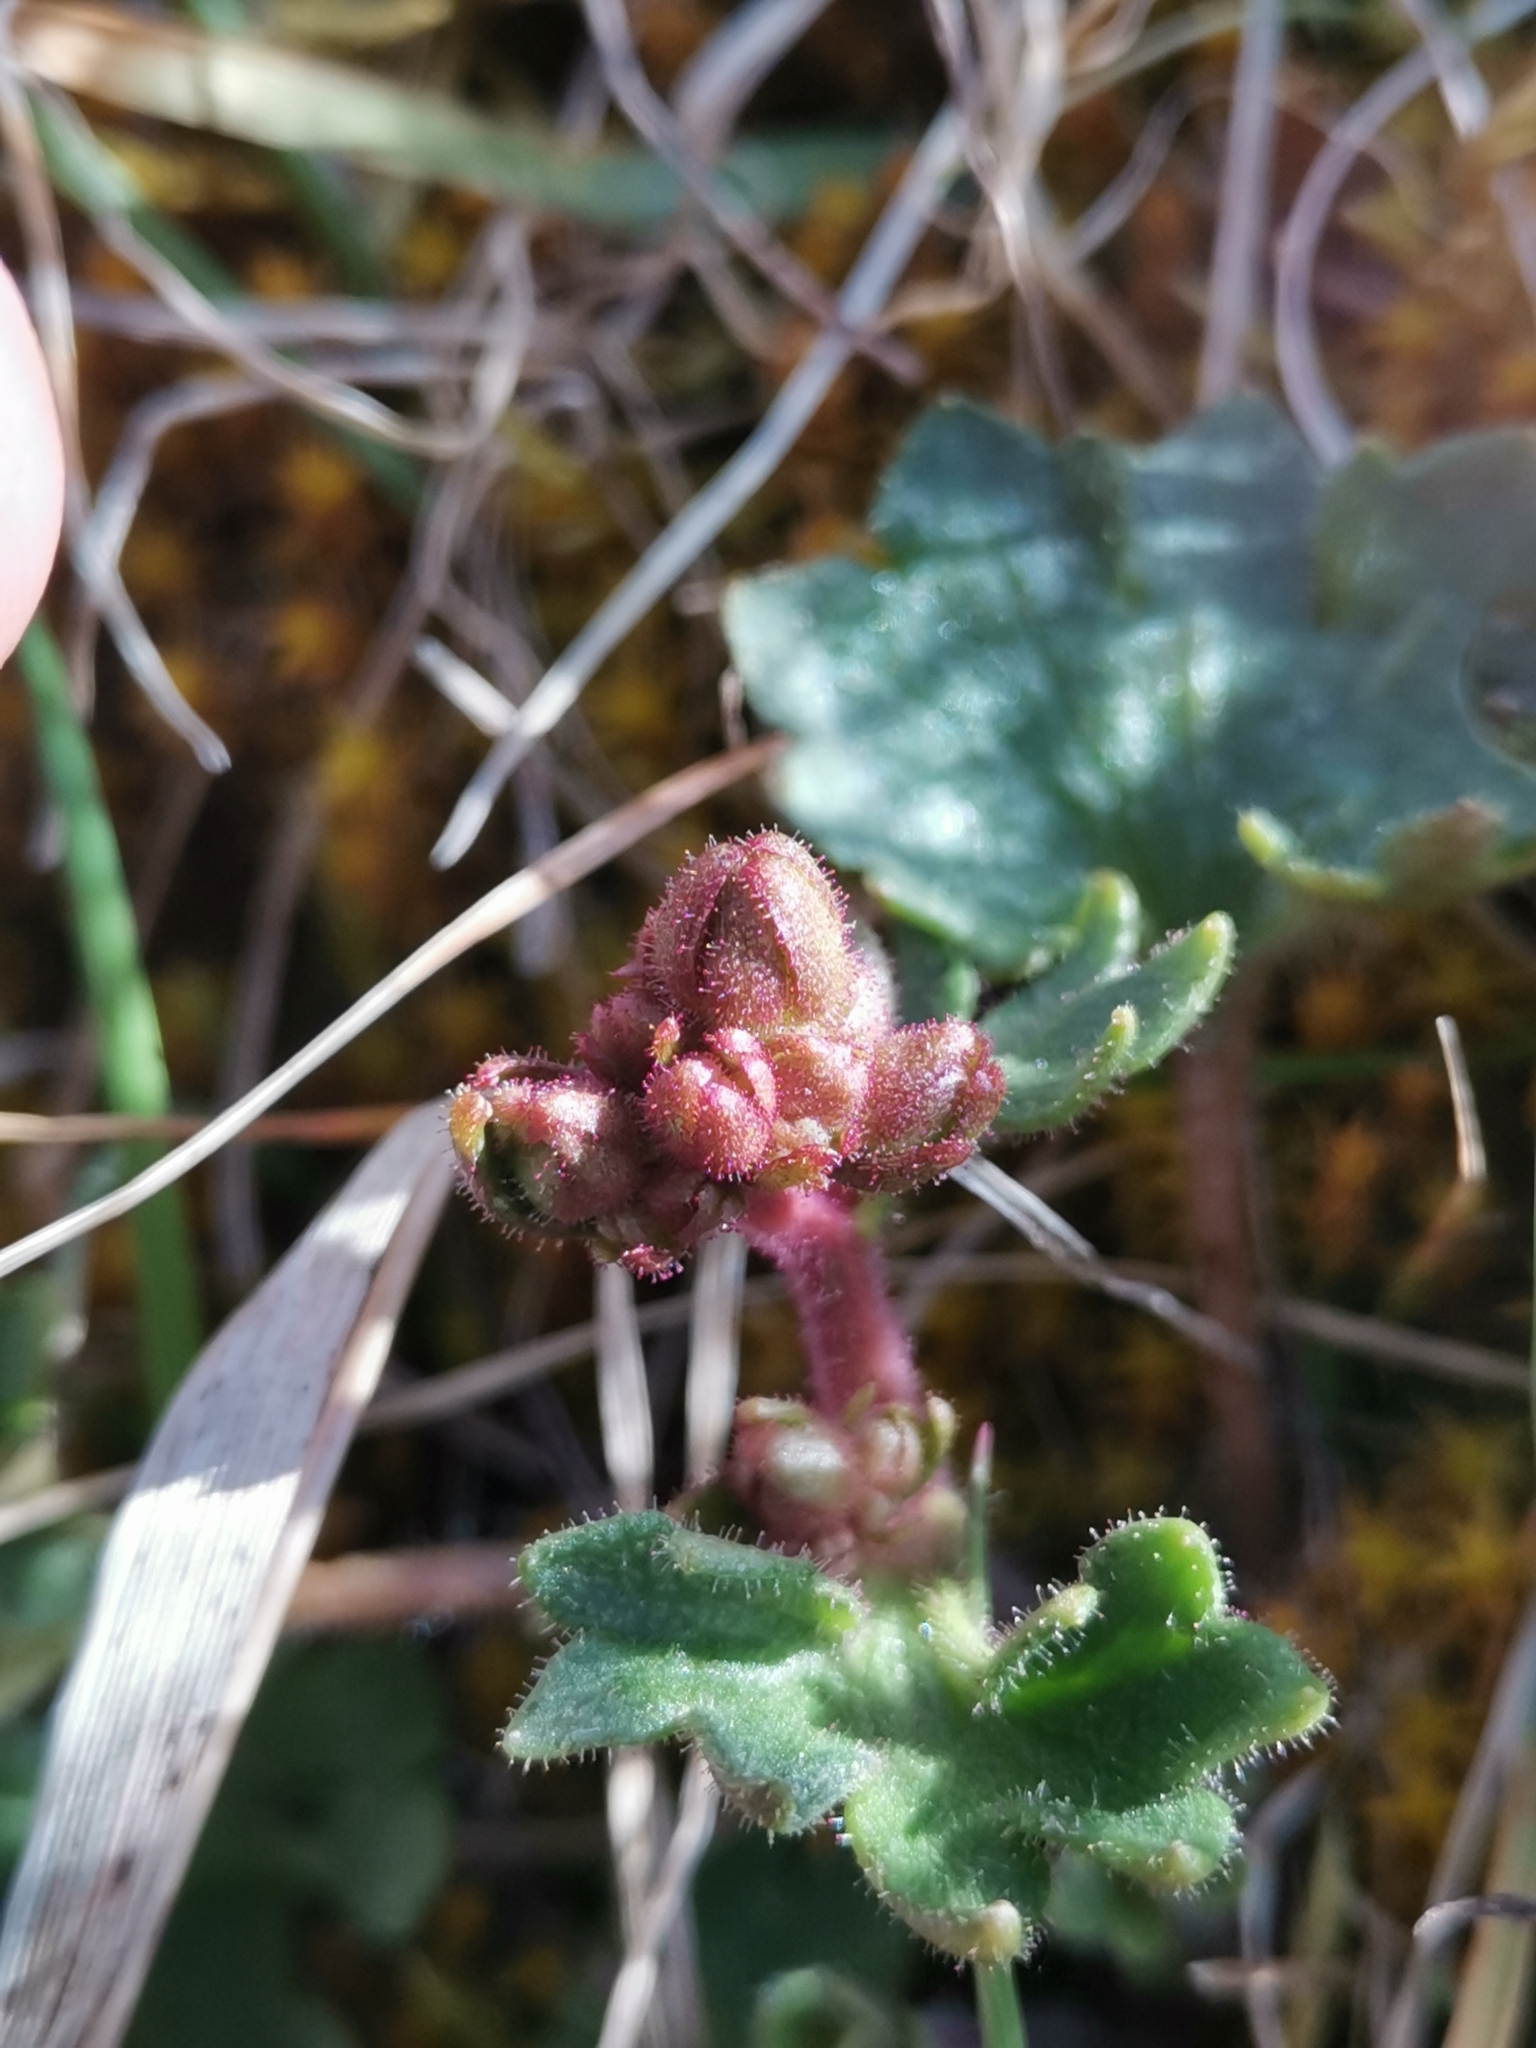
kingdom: Plantae
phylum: Tracheophyta
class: Magnoliopsida
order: Saxifragales
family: Saxifragaceae
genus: Saxifraga
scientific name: Saxifraga granulata
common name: Meadow saxifrage
